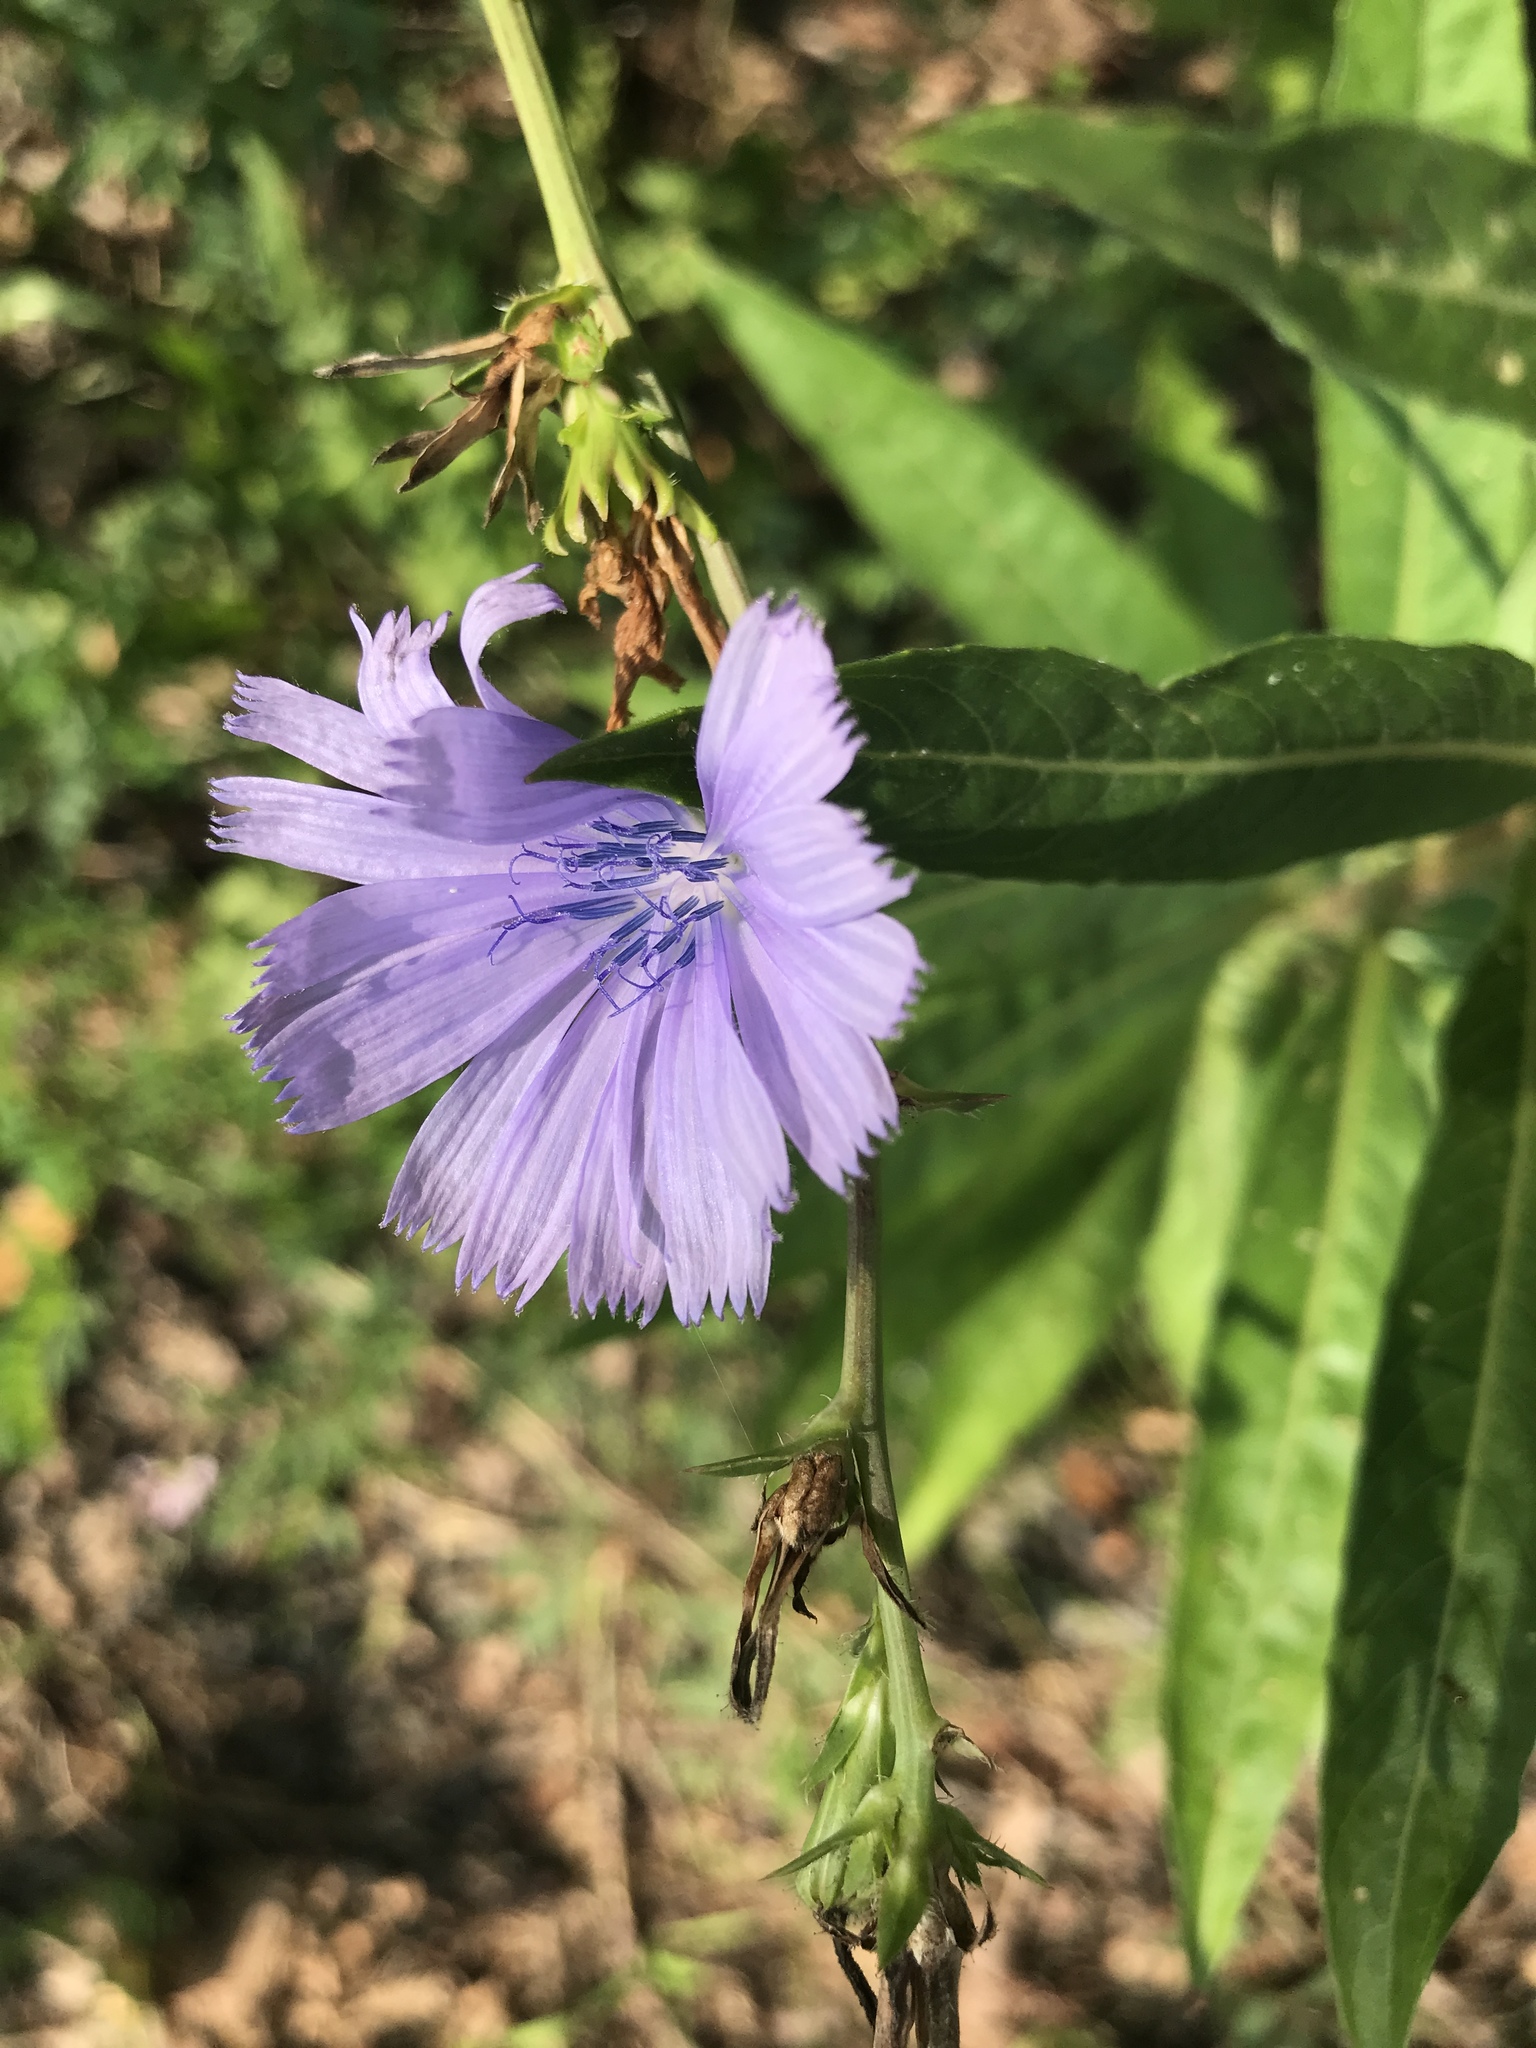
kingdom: Plantae
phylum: Tracheophyta
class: Magnoliopsida
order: Asterales
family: Asteraceae
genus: Cichorium
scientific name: Cichorium intybus
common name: Chicory
